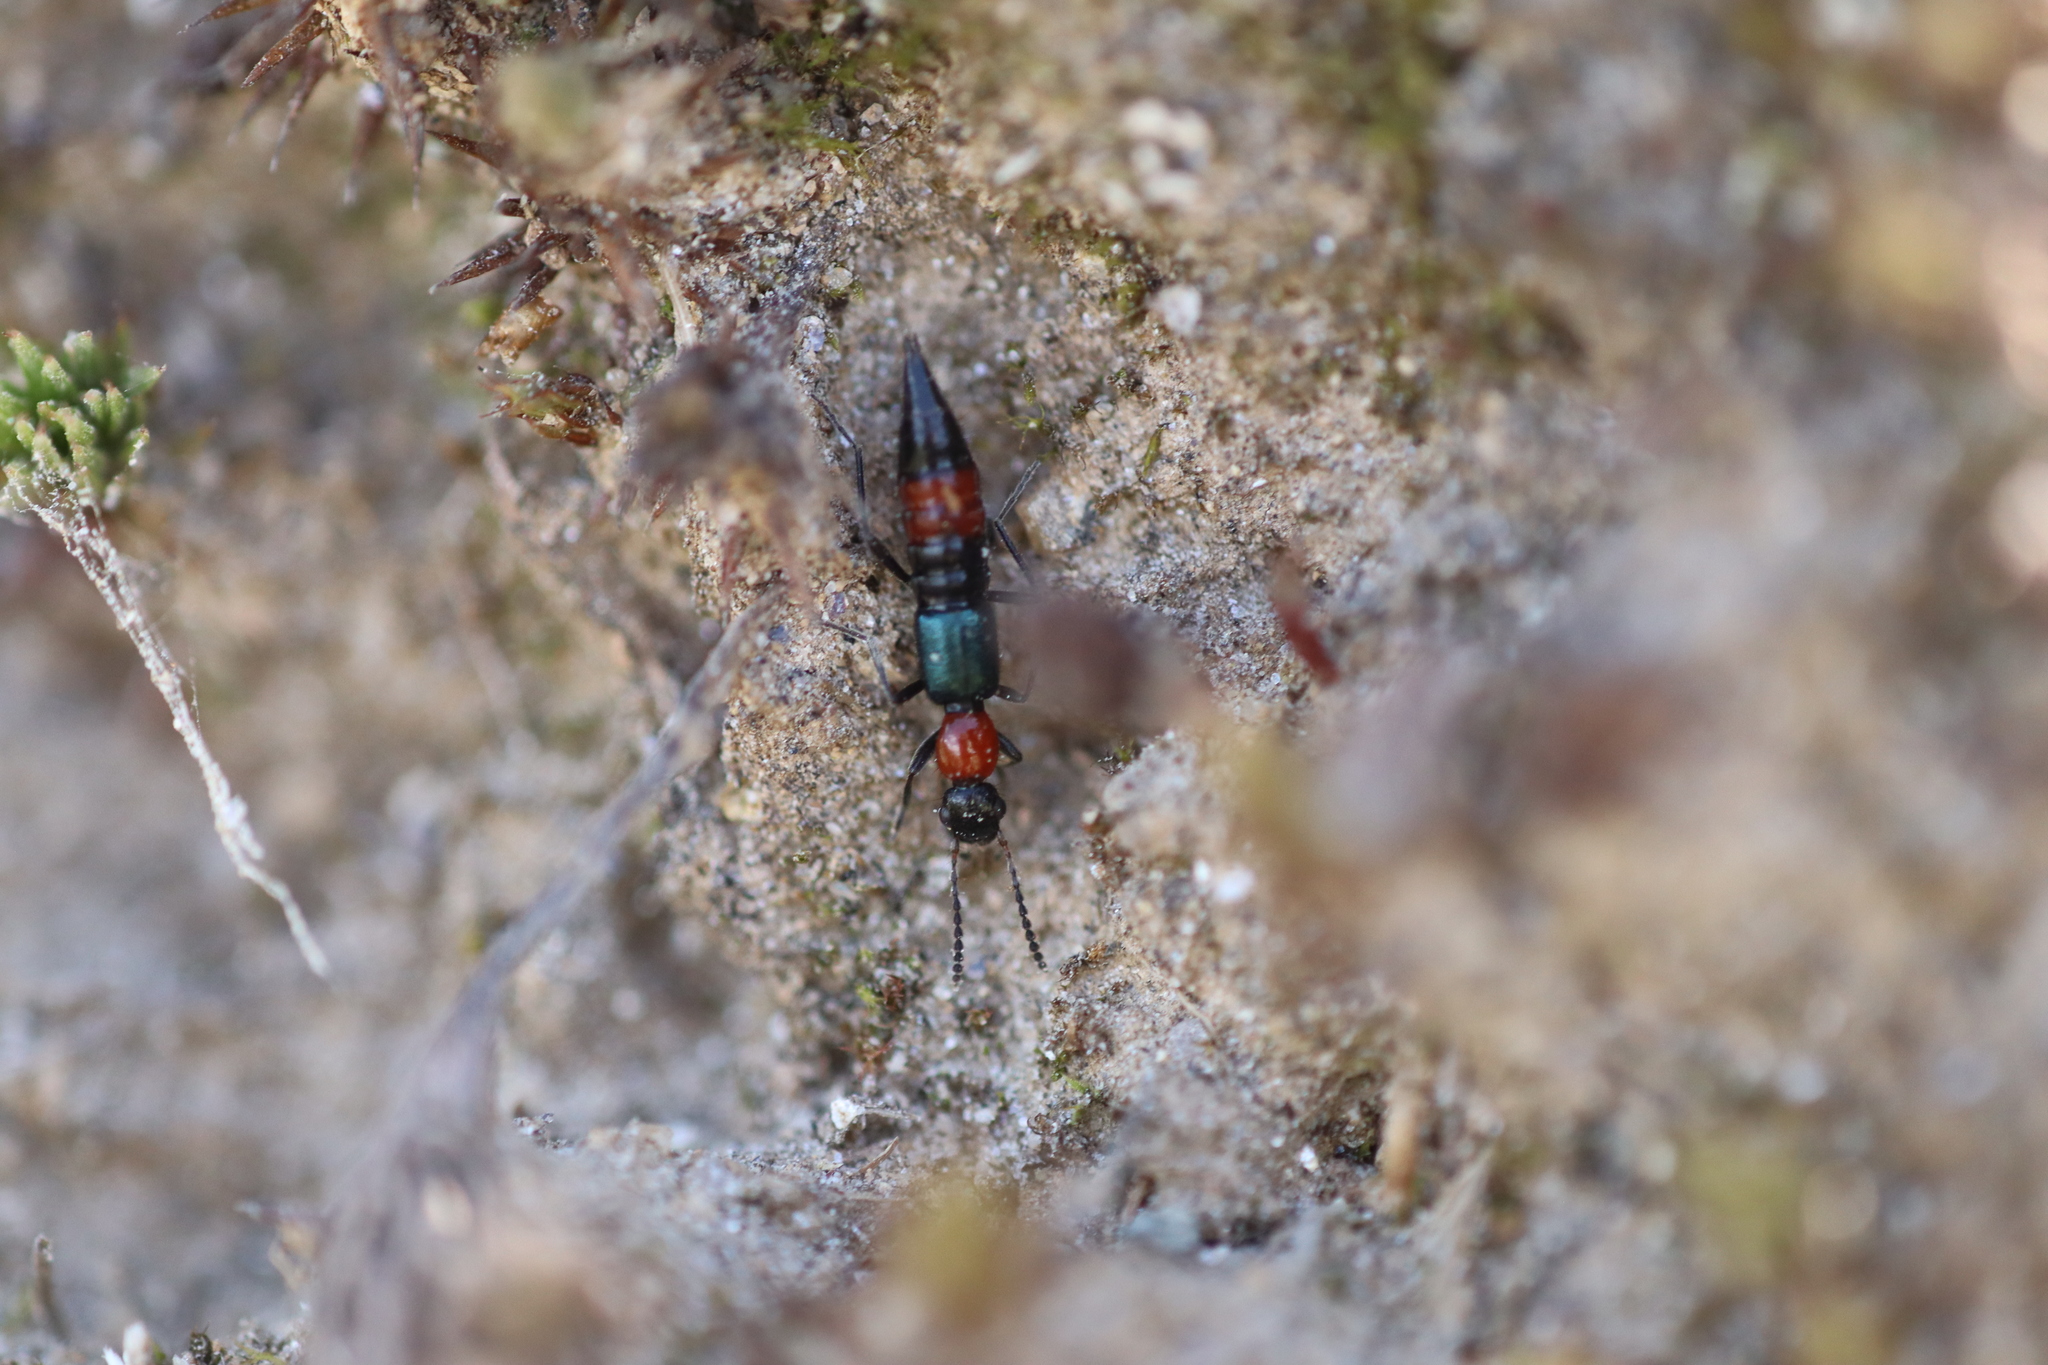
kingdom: Animalia
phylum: Arthropoda
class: Insecta
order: Coleoptera
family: Staphylinidae
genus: Paederus
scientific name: Paederus cruenticollis
